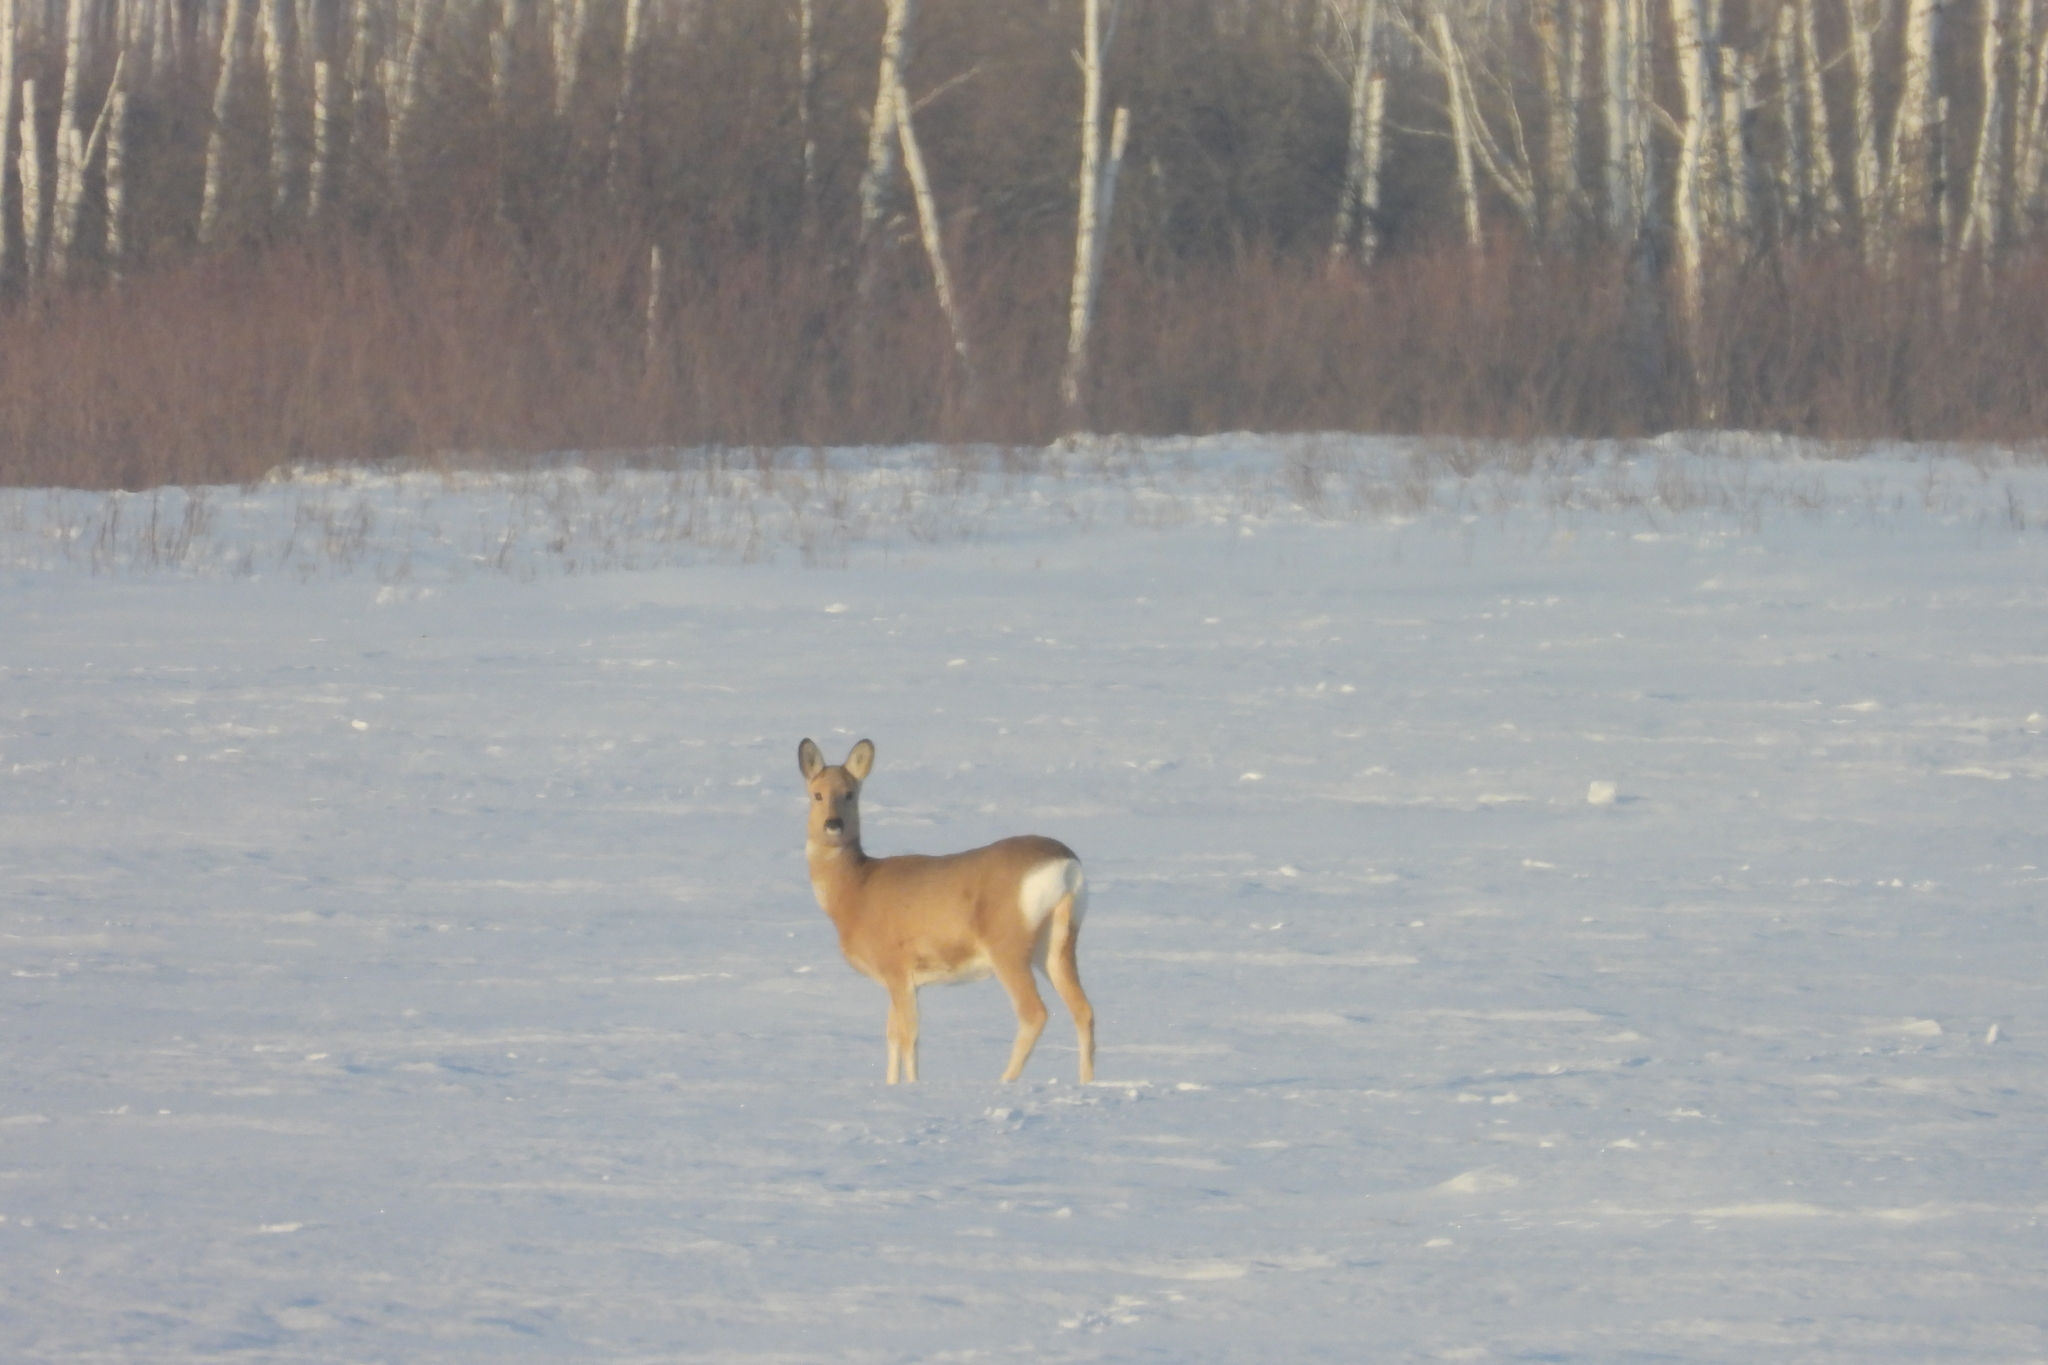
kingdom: Animalia
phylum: Chordata
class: Mammalia
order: Artiodactyla
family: Cervidae
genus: Capreolus
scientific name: Capreolus pygargus
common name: Siberian roe
